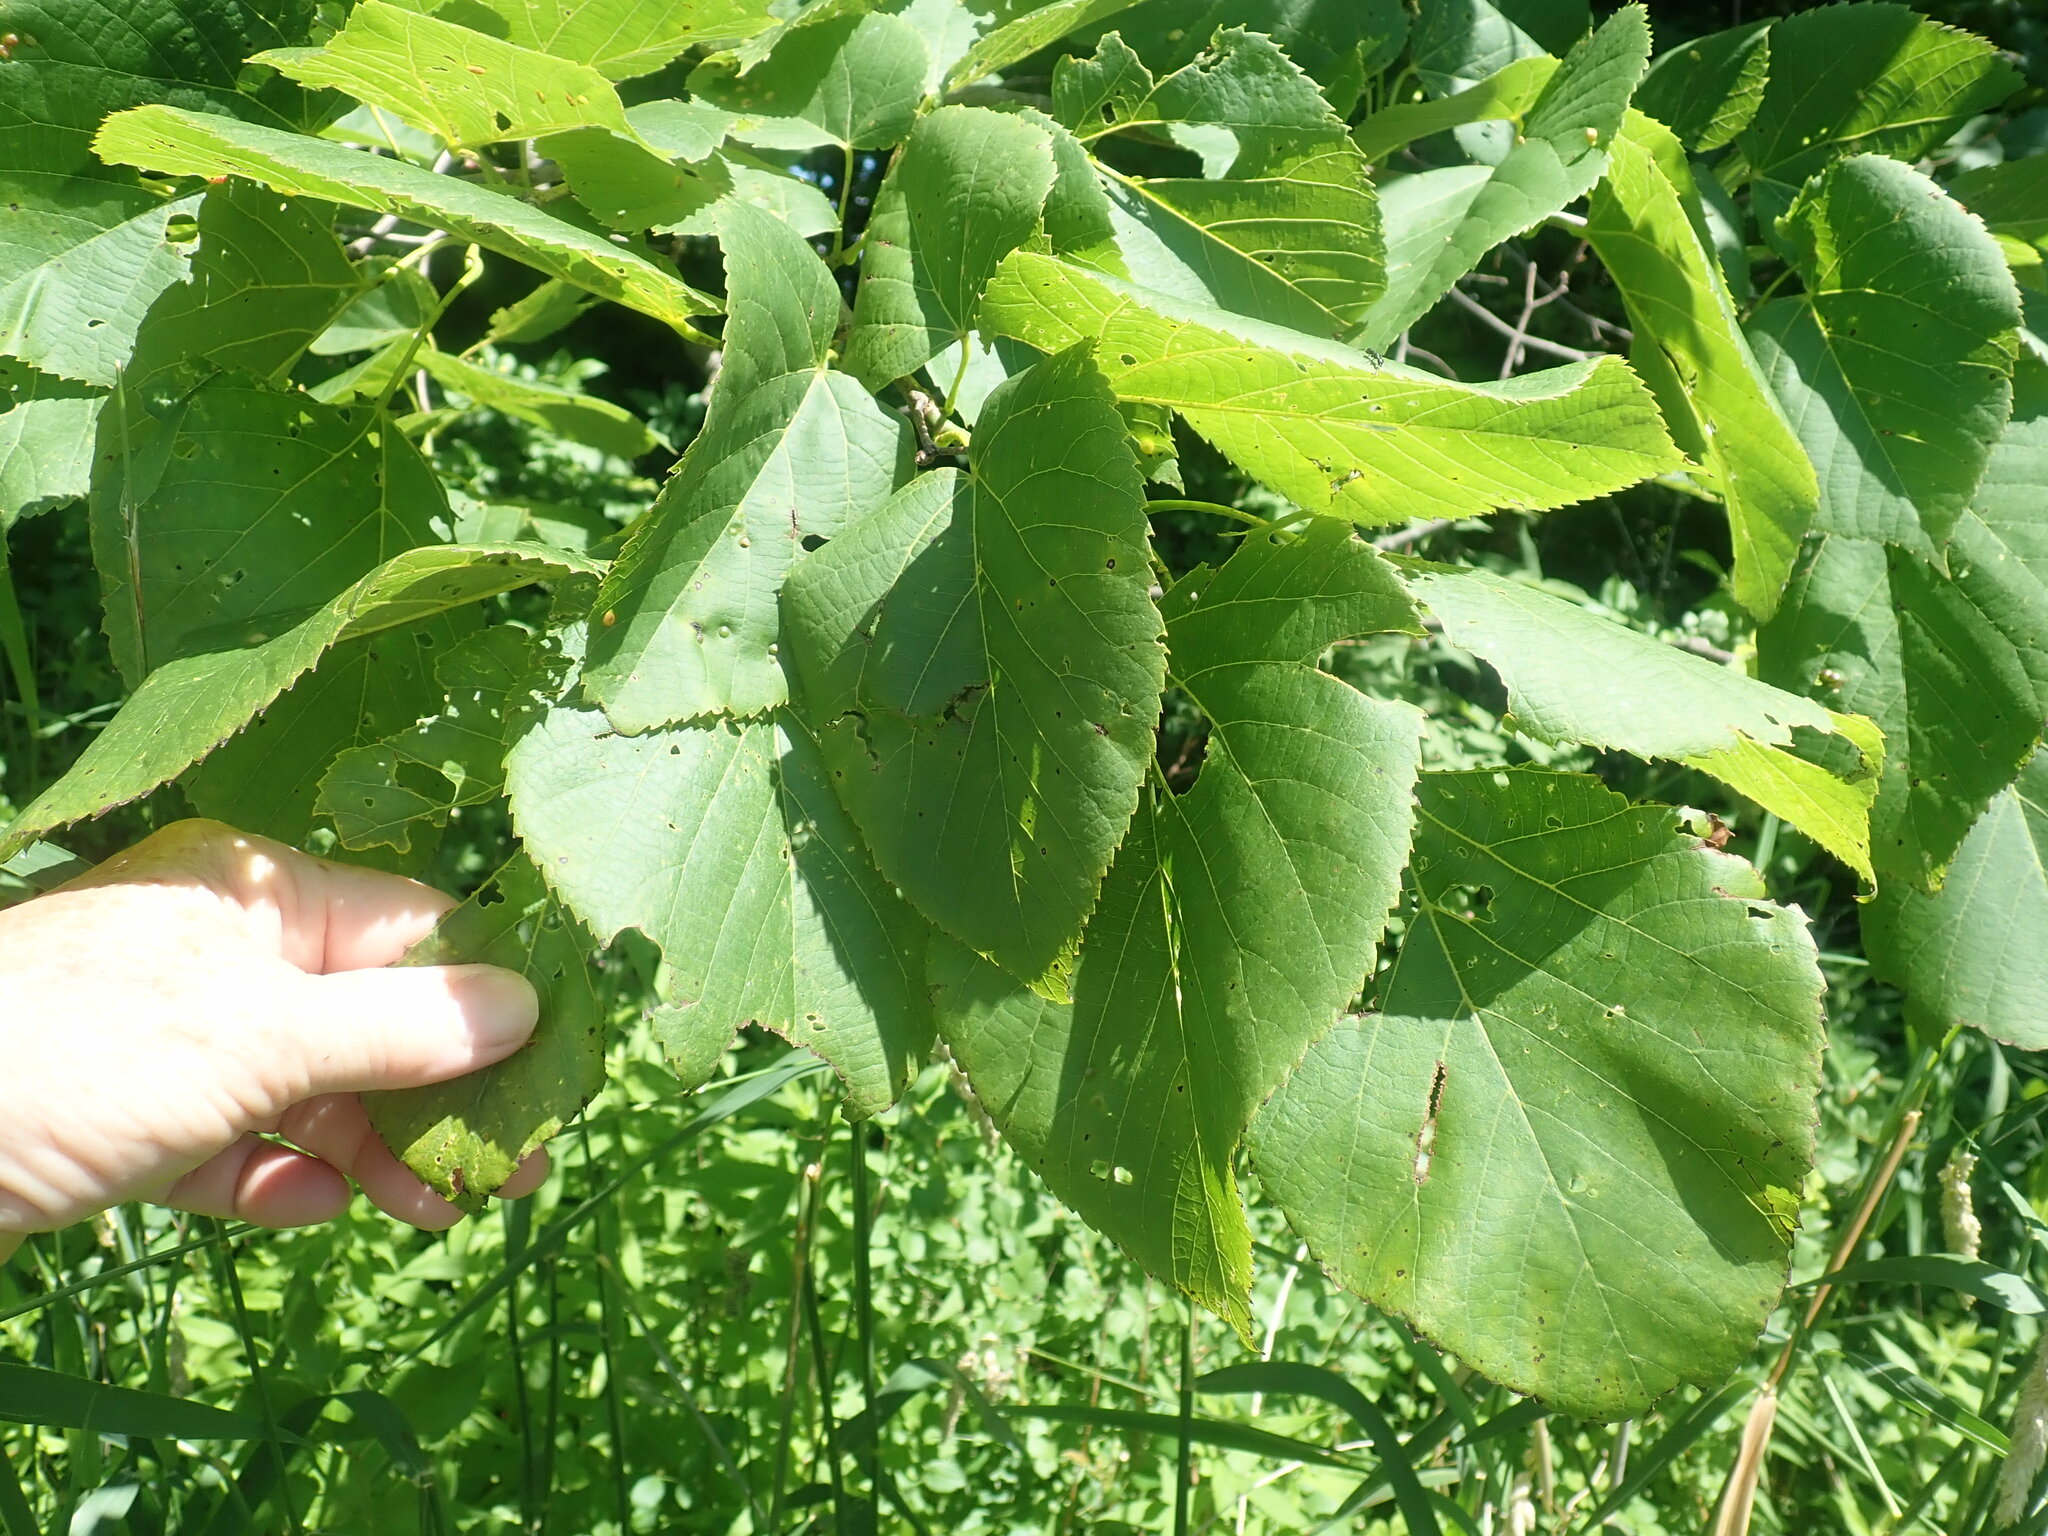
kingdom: Plantae
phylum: Tracheophyta
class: Magnoliopsida
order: Malvales
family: Malvaceae
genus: Tilia
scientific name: Tilia americana
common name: Basswood
